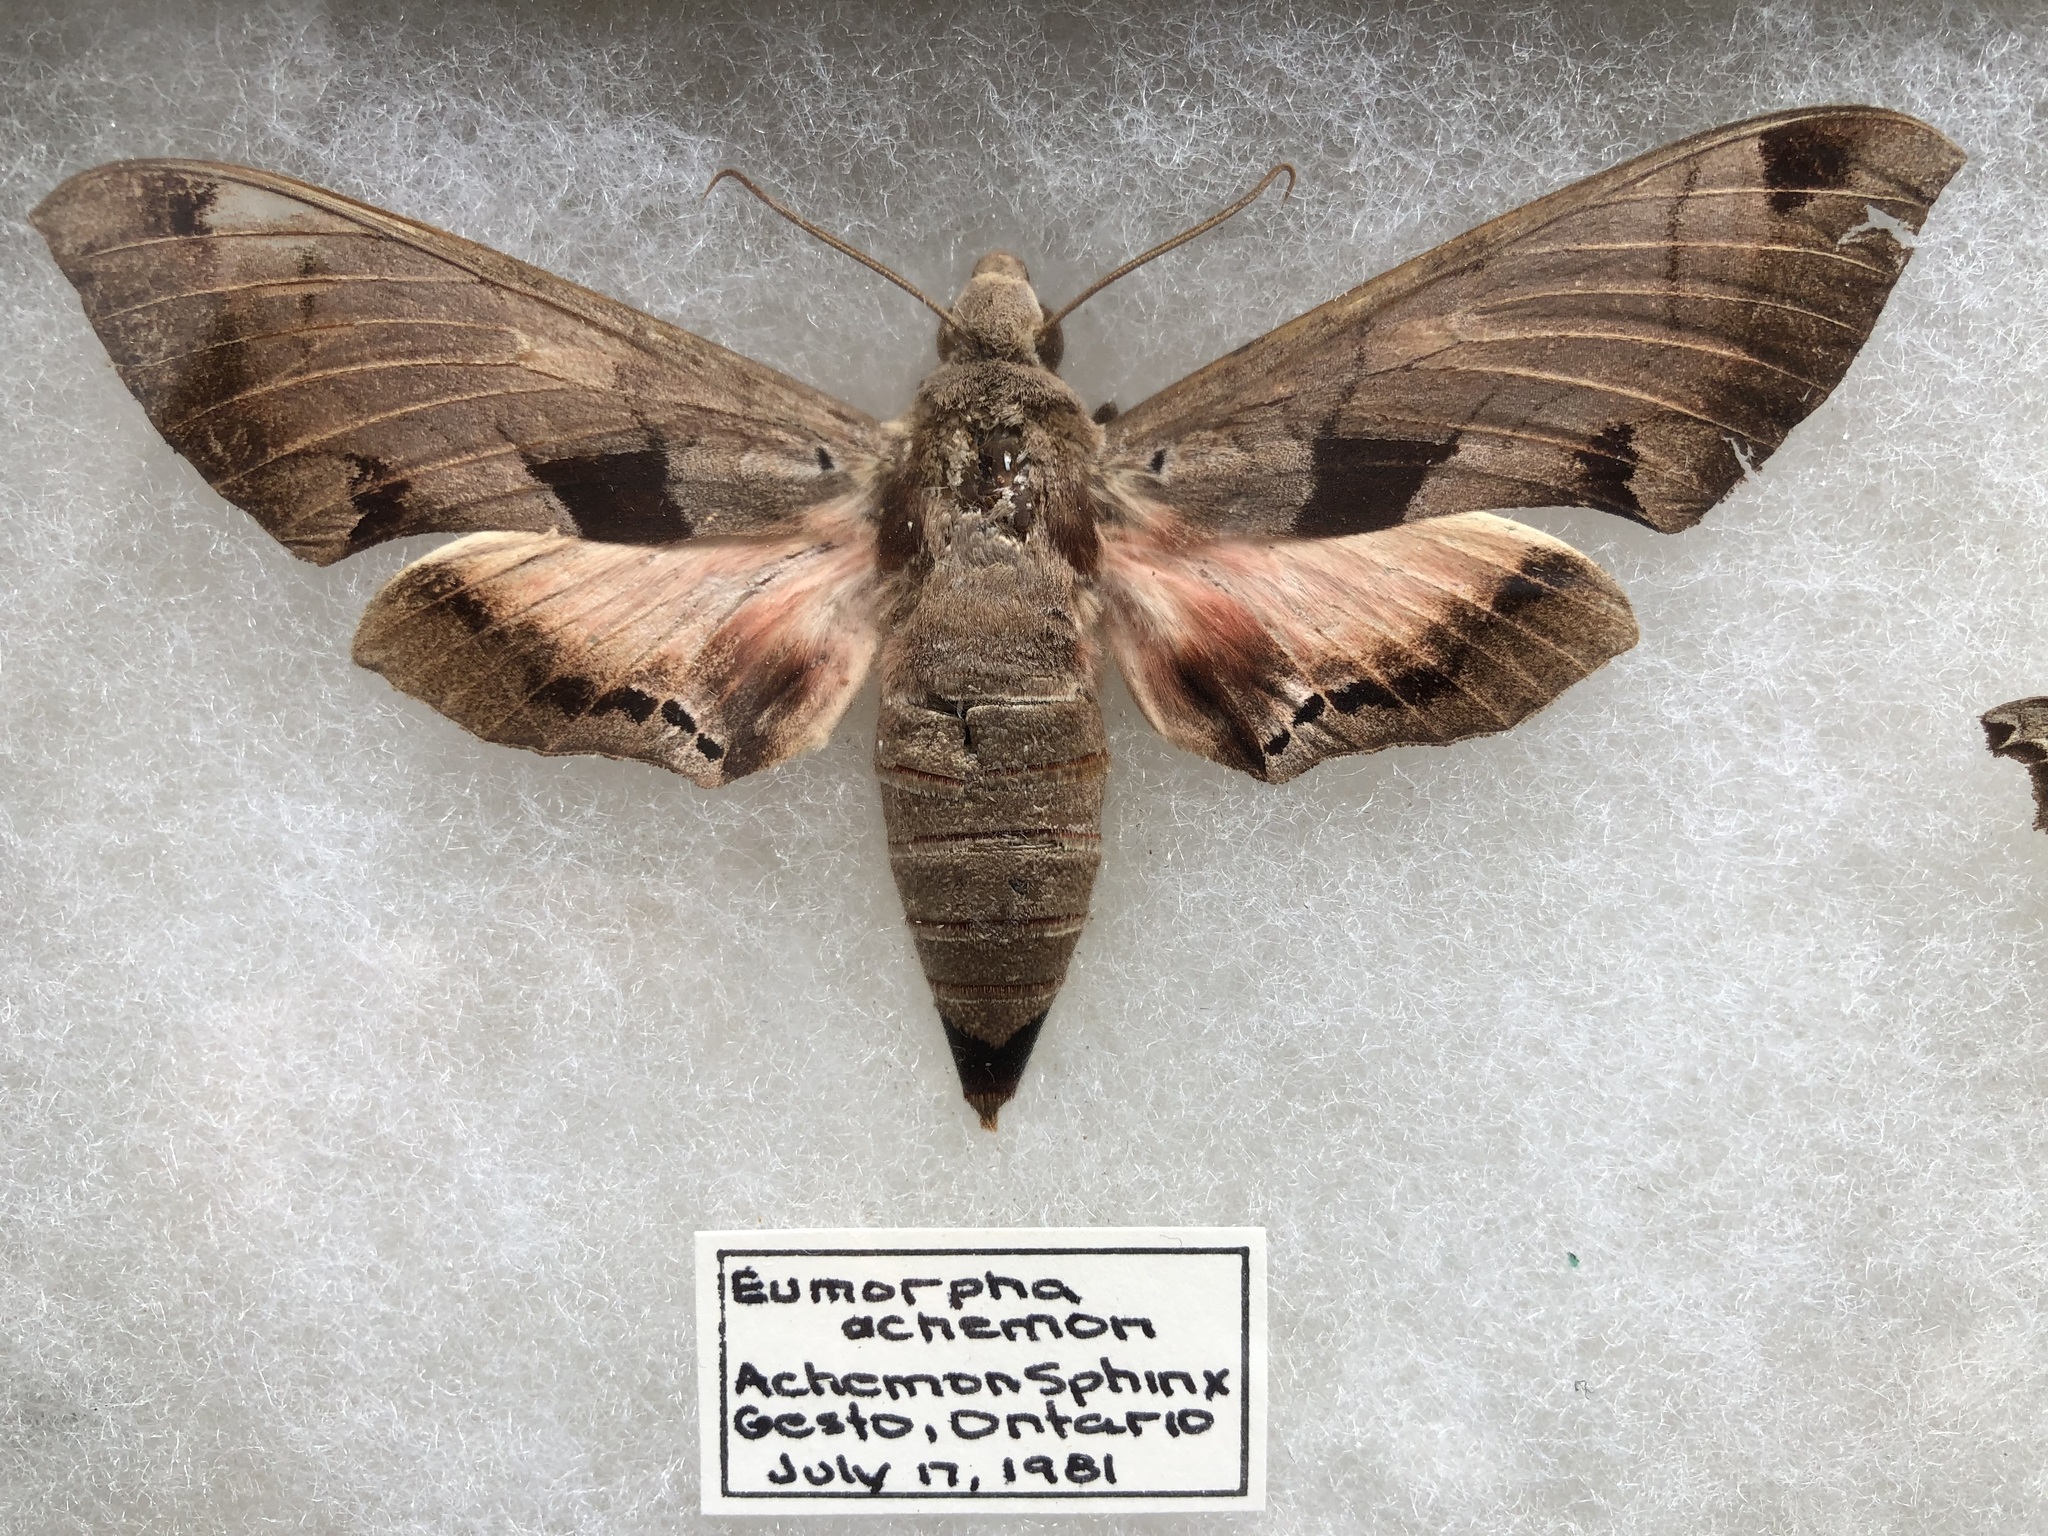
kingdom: Animalia
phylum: Arthropoda
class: Insecta
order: Lepidoptera
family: Sphingidae
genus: Eumorpha
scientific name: Eumorpha achemon
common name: Achemon sphinx
